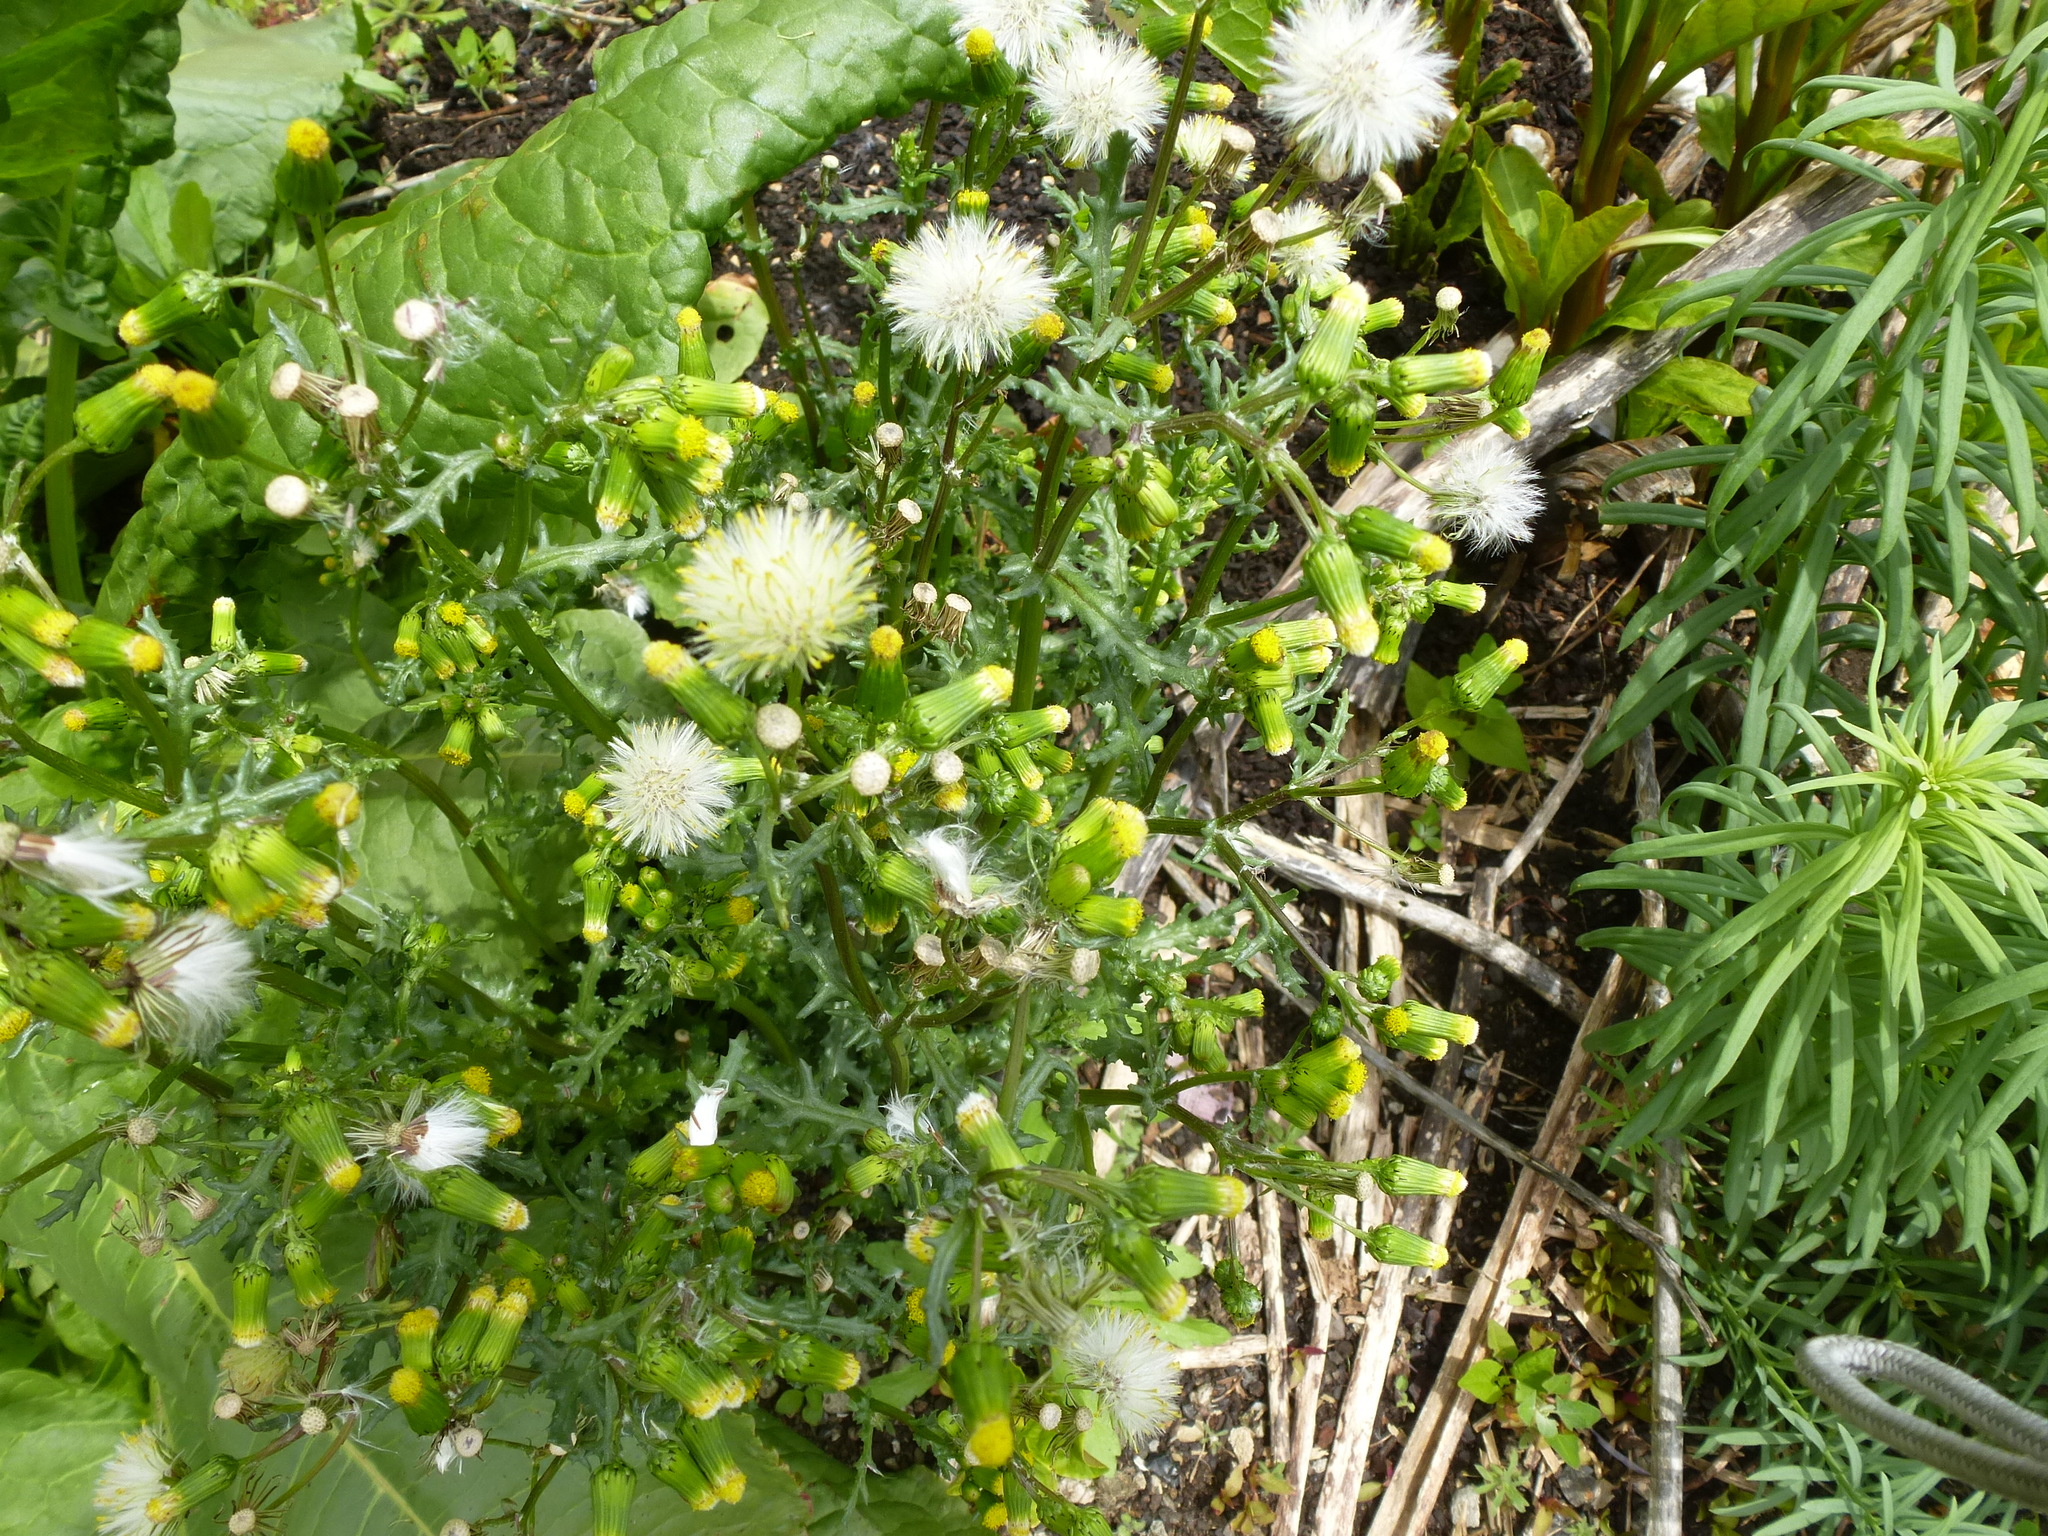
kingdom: Plantae
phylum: Tracheophyta
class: Magnoliopsida
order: Asterales
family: Asteraceae
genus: Senecio
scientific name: Senecio vulgaris
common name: Old-man-in-the-spring
